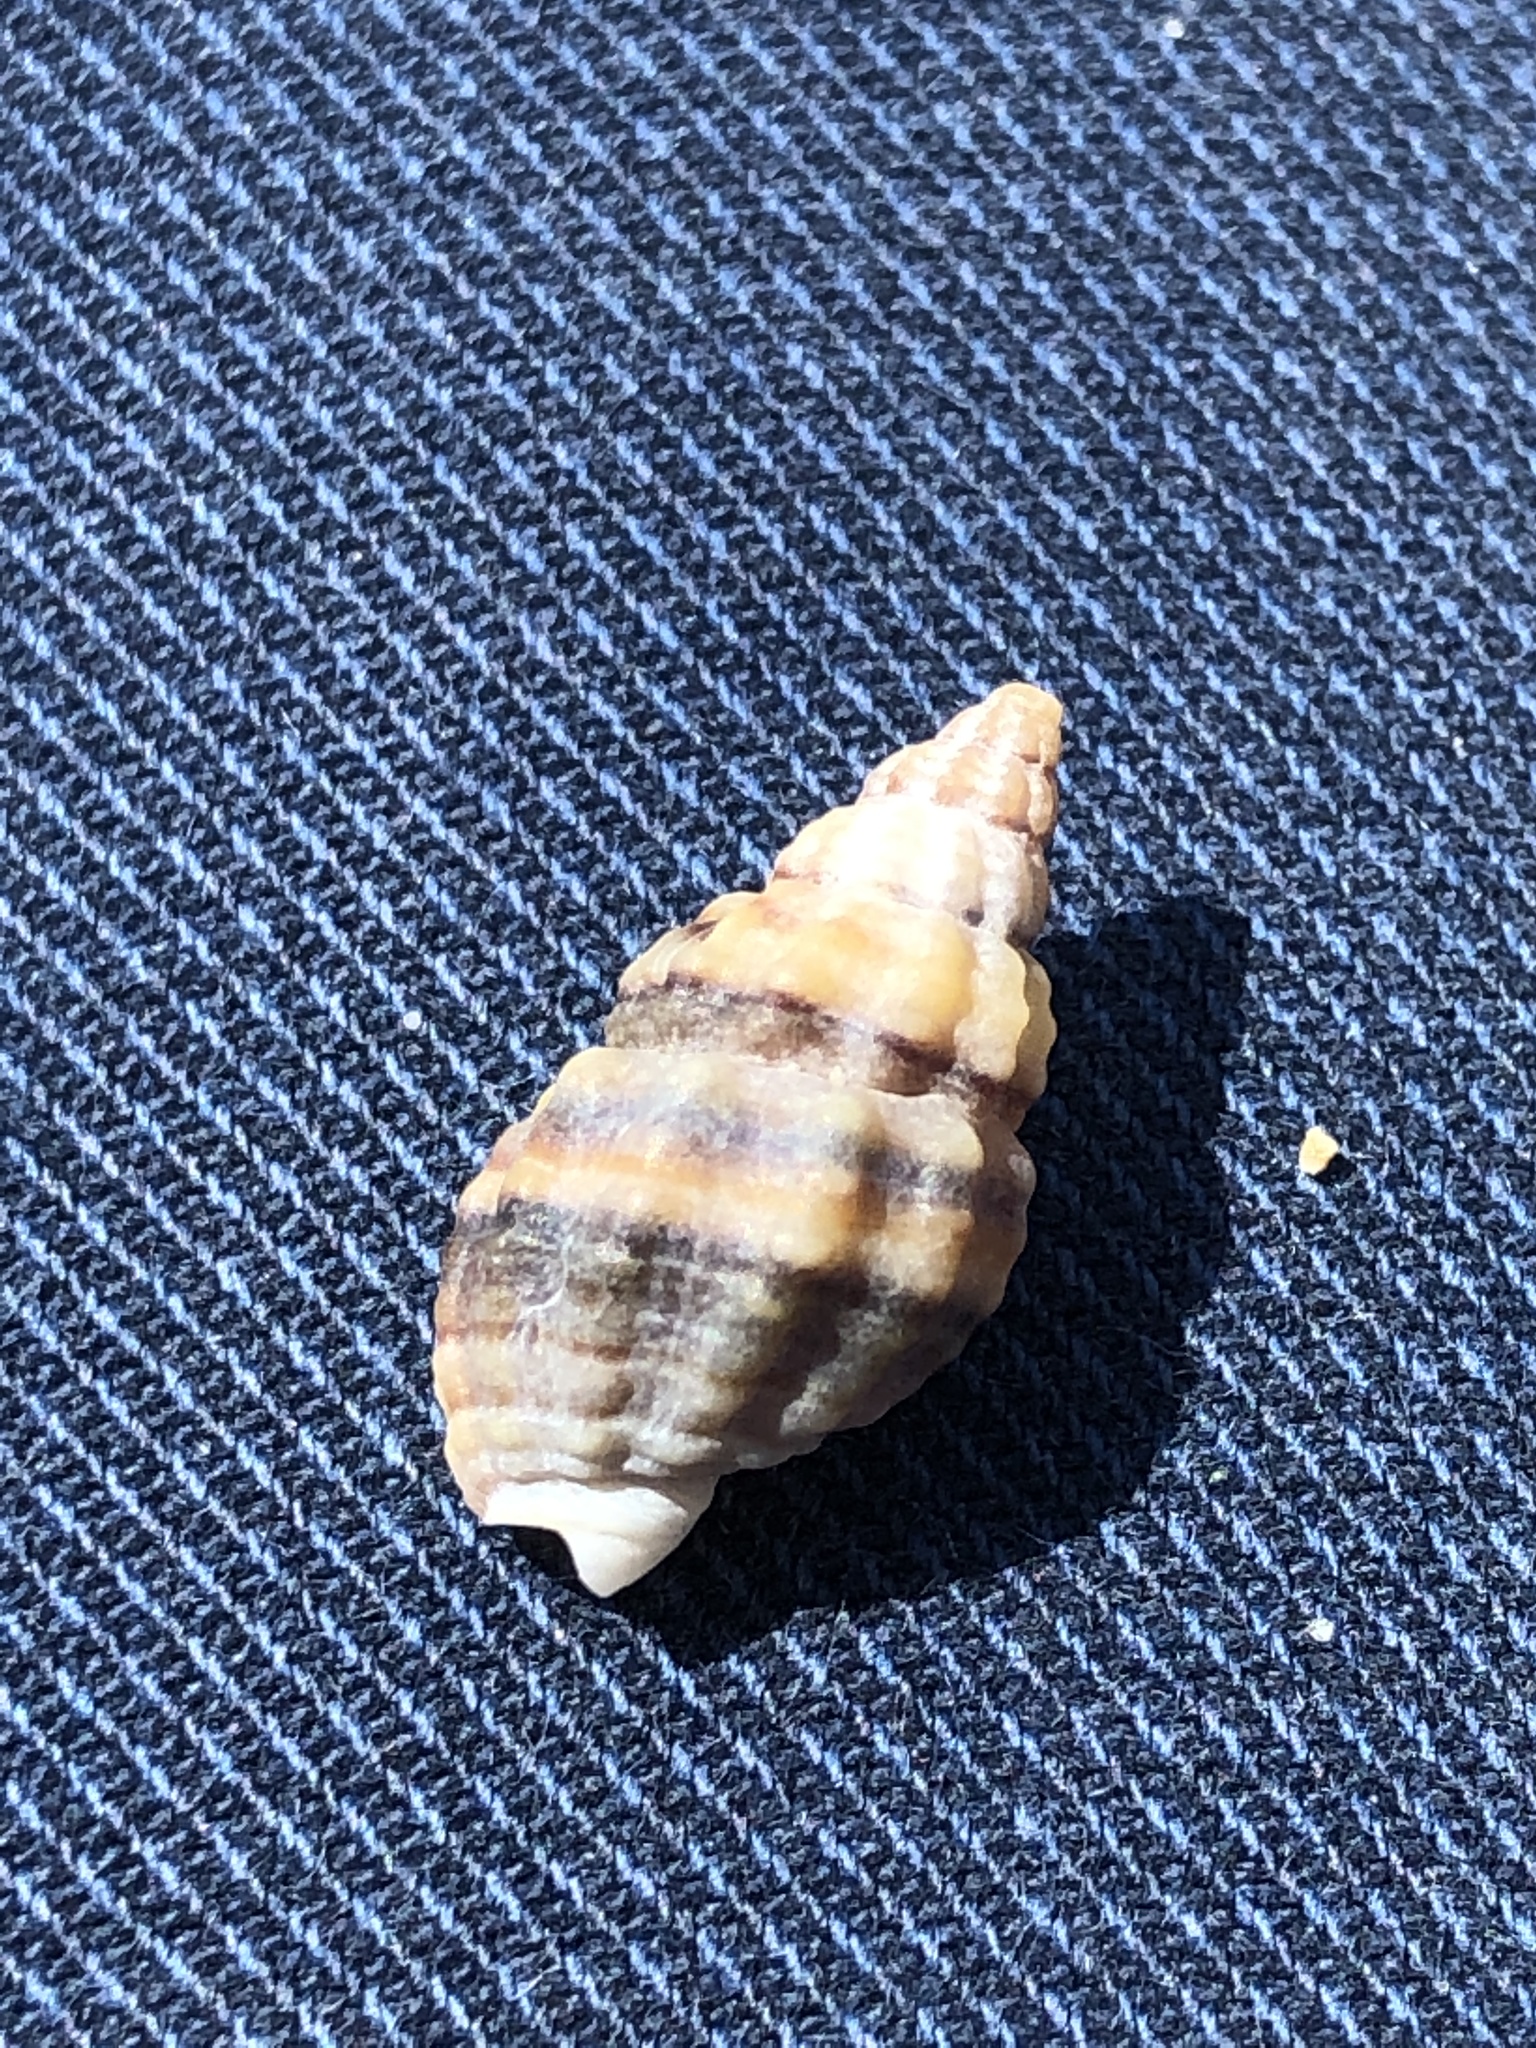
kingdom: Animalia
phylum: Mollusca
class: Gastropoda
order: Neogastropoda
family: Nassariidae
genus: Nassarius
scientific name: Nassarius festivus
